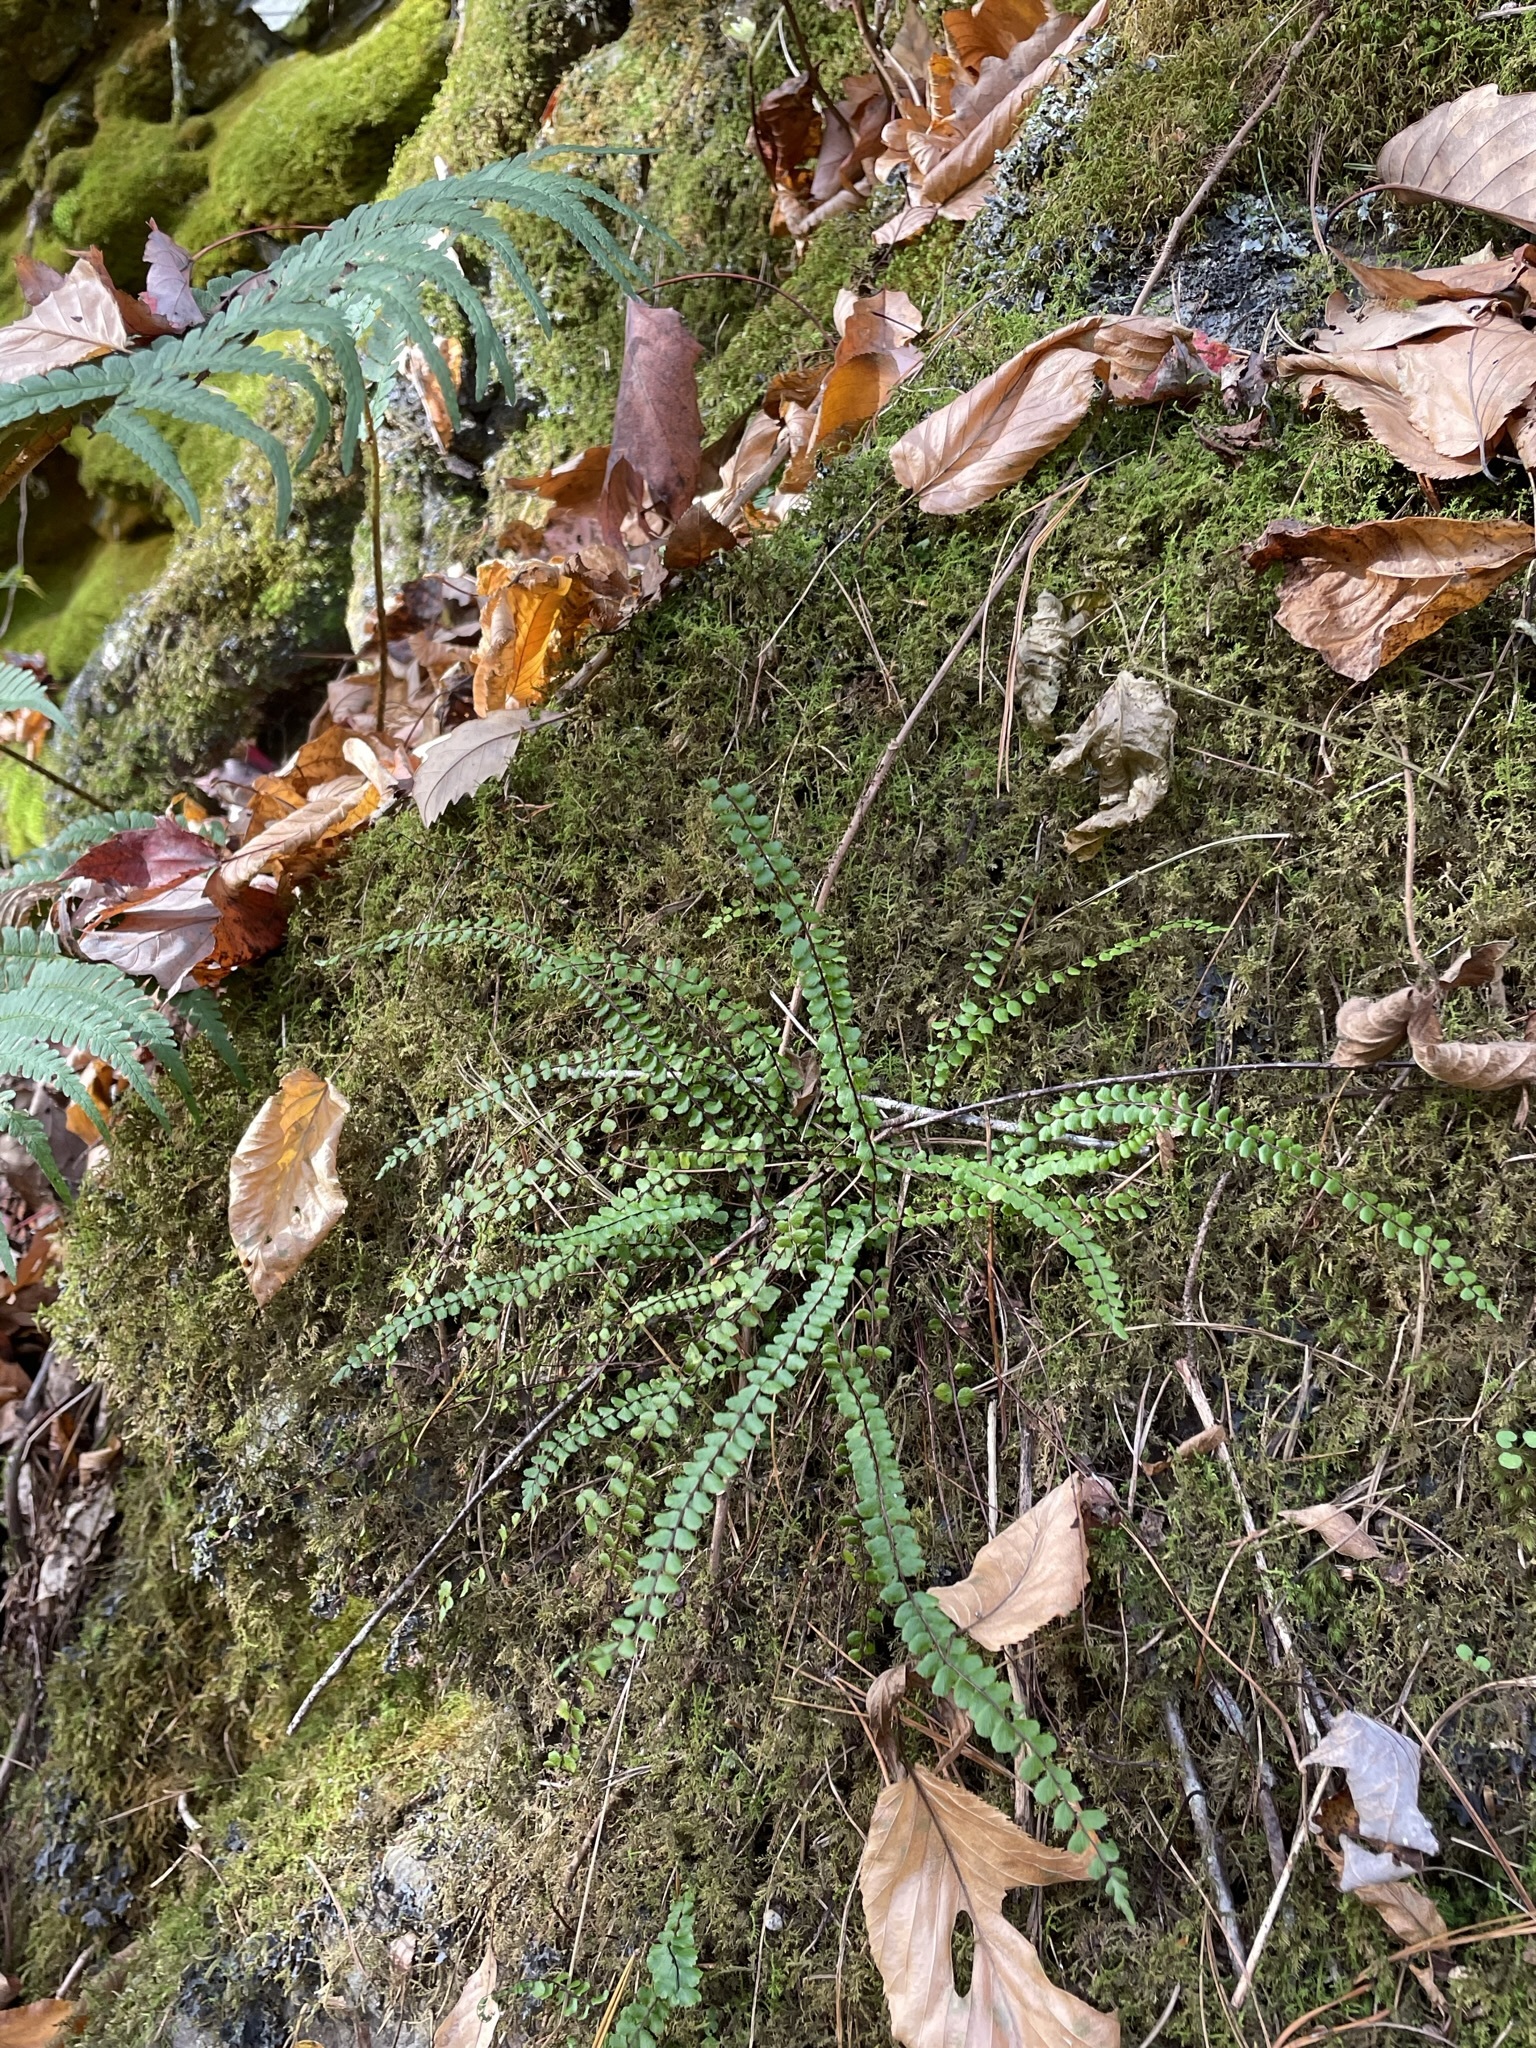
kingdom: Plantae
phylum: Tracheophyta
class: Polypodiopsida
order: Polypodiales
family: Aspleniaceae
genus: Asplenium
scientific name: Asplenium trichomanes
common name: Maidenhair spleenwort
